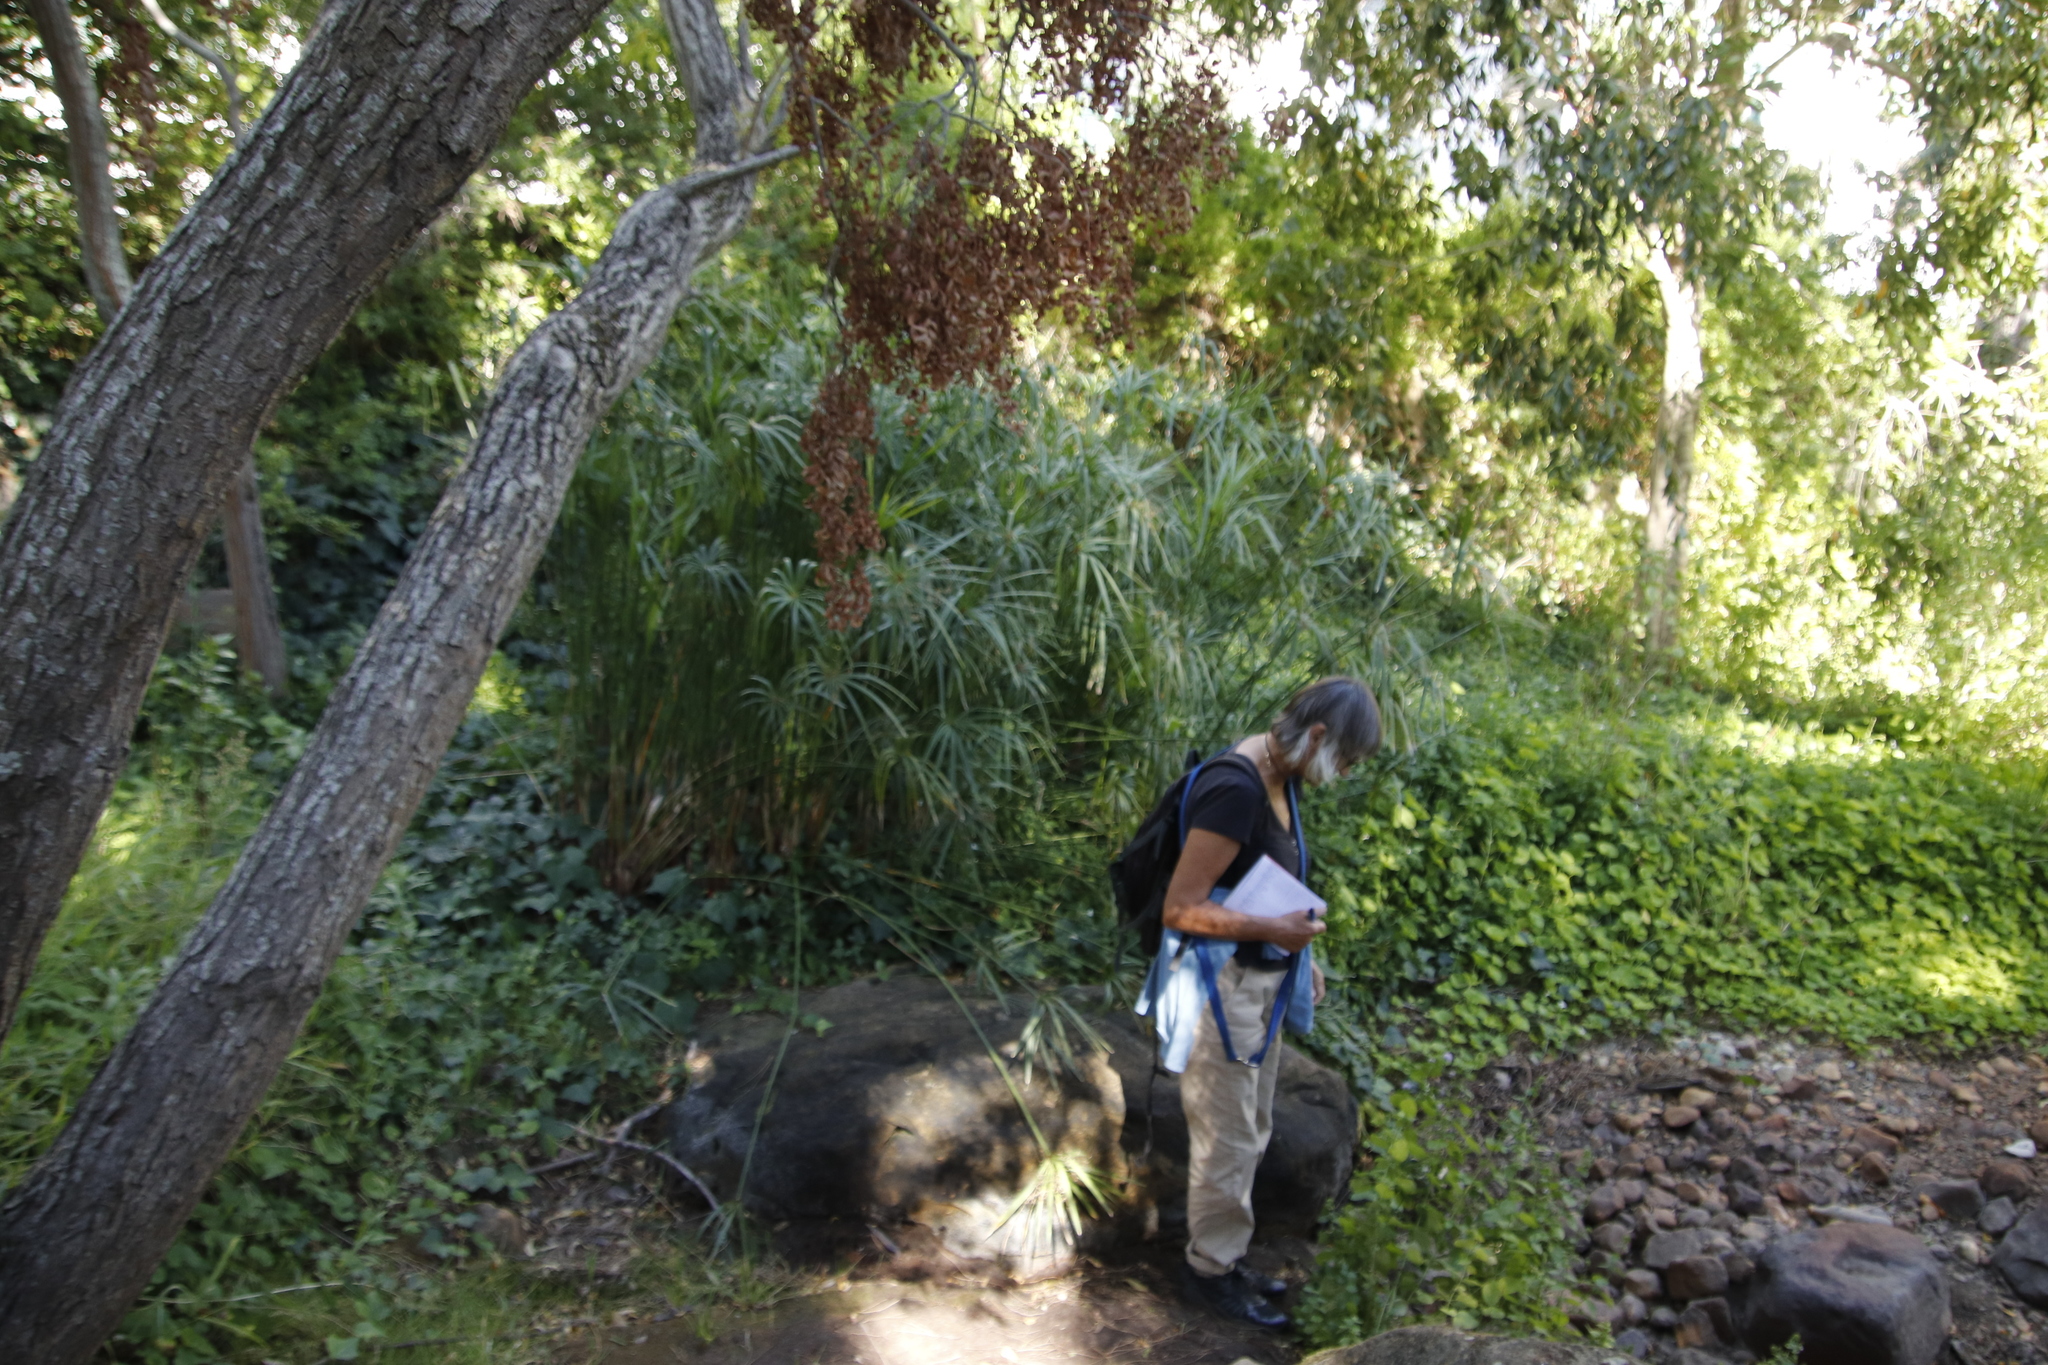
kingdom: Plantae
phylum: Tracheophyta
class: Liliopsida
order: Poales
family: Cyperaceae
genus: Cyperus
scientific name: Cyperus textilis
